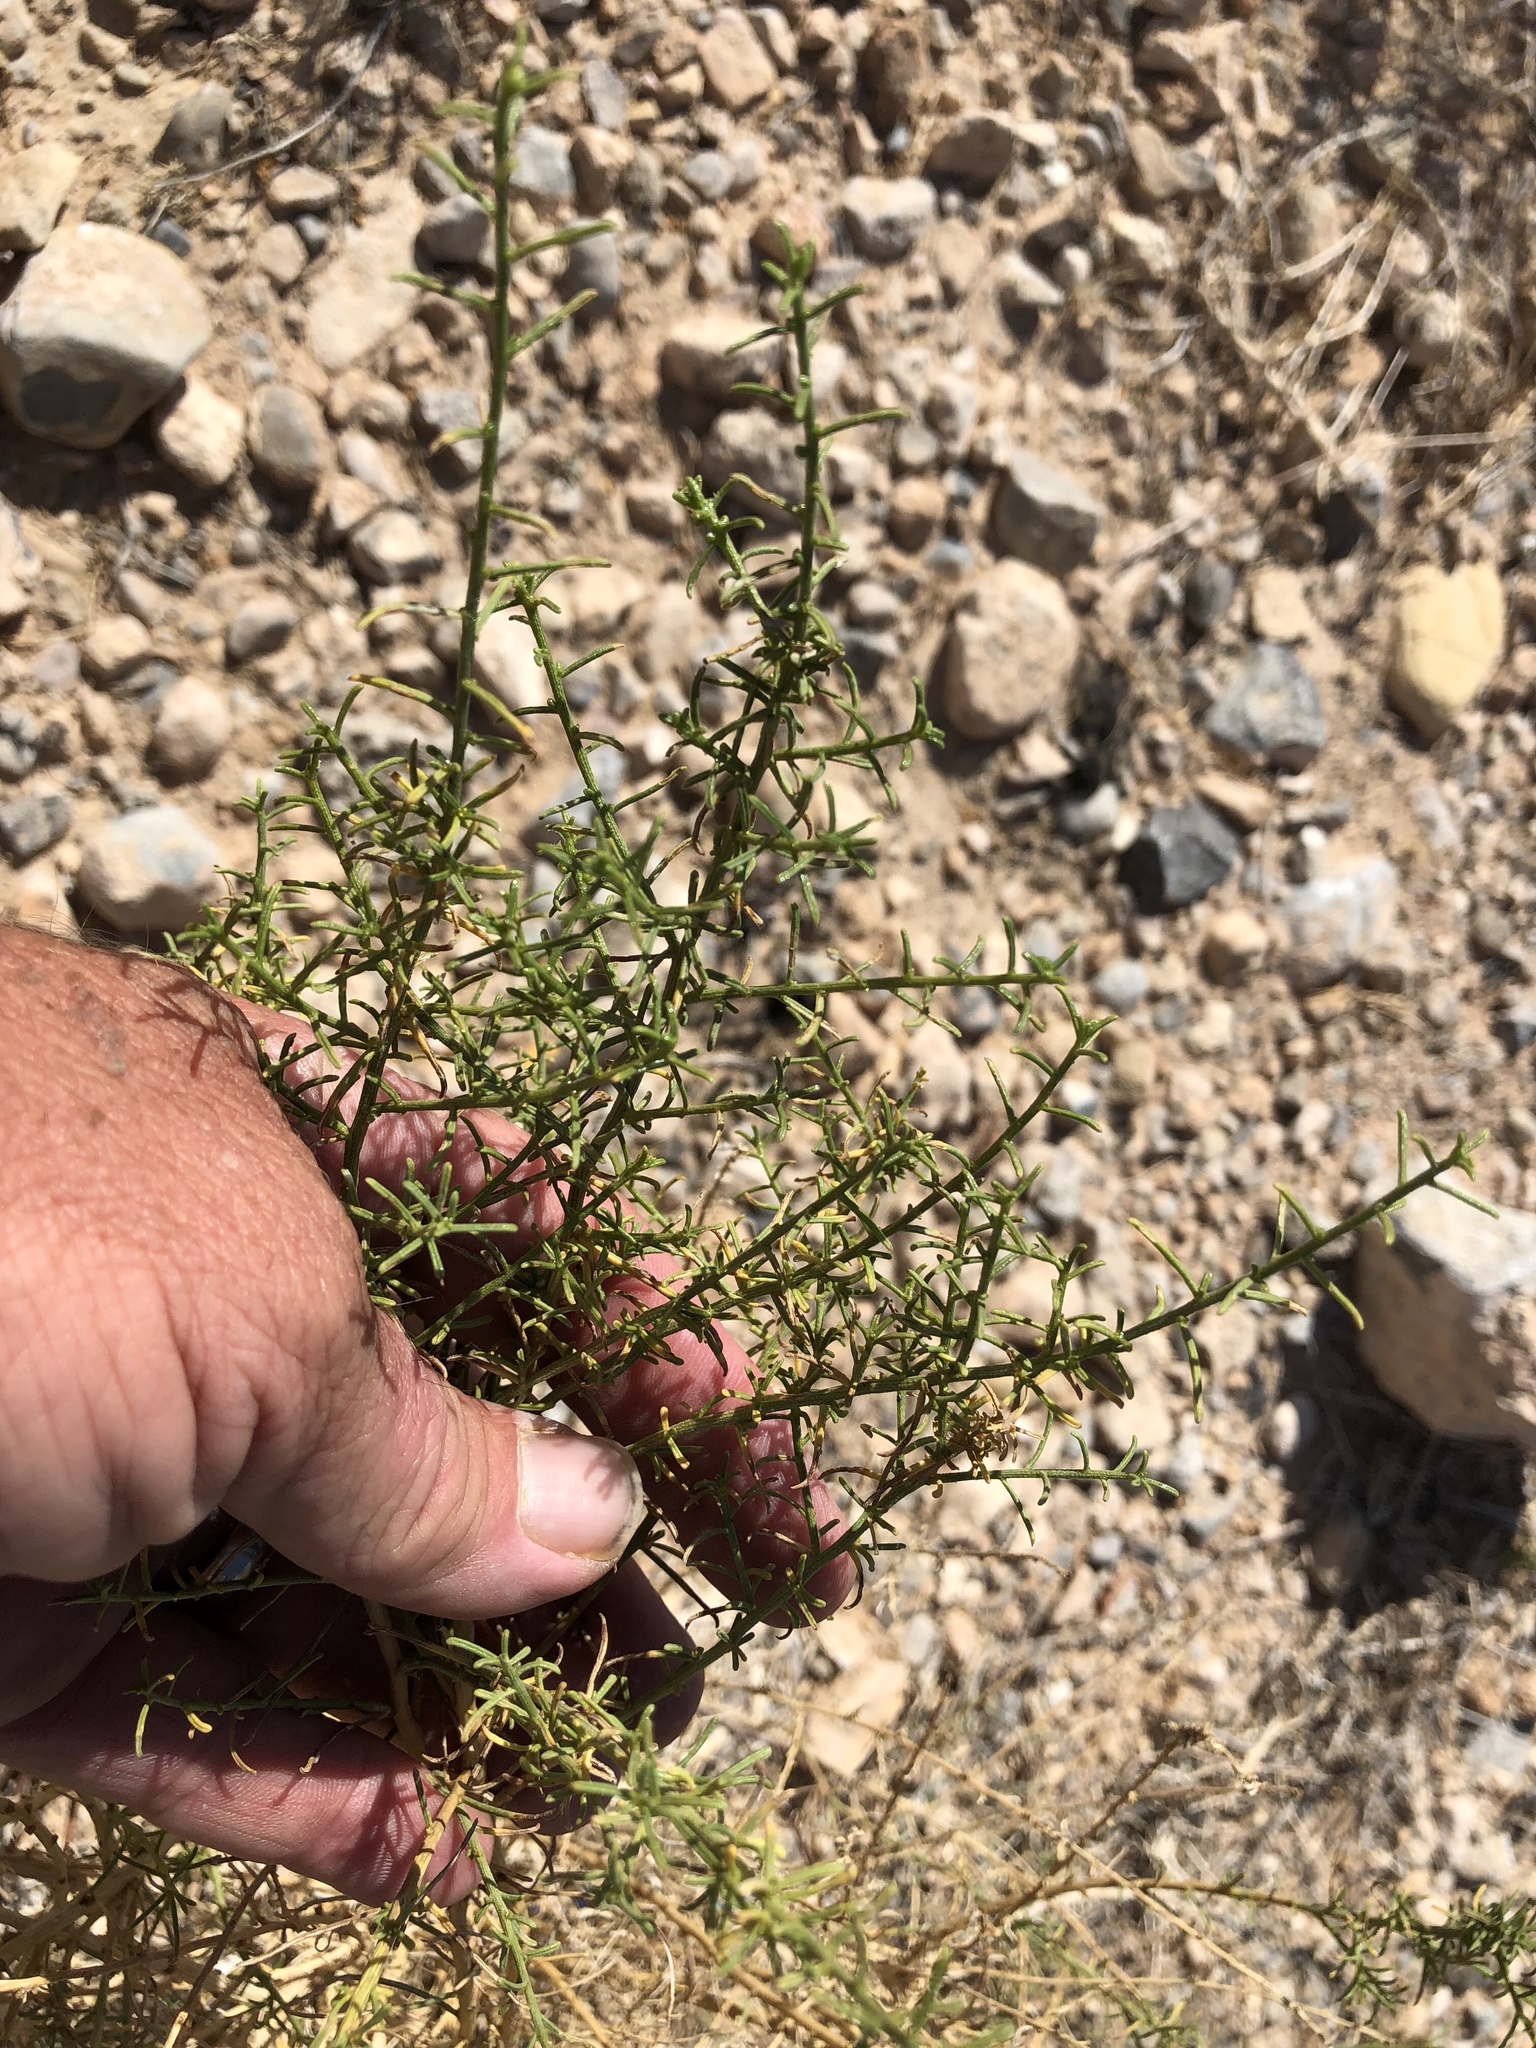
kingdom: Plantae
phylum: Tracheophyta
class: Magnoliopsida
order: Asterales
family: Asteraceae
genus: Ambrosia
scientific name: Ambrosia salsola
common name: Burrobrush
